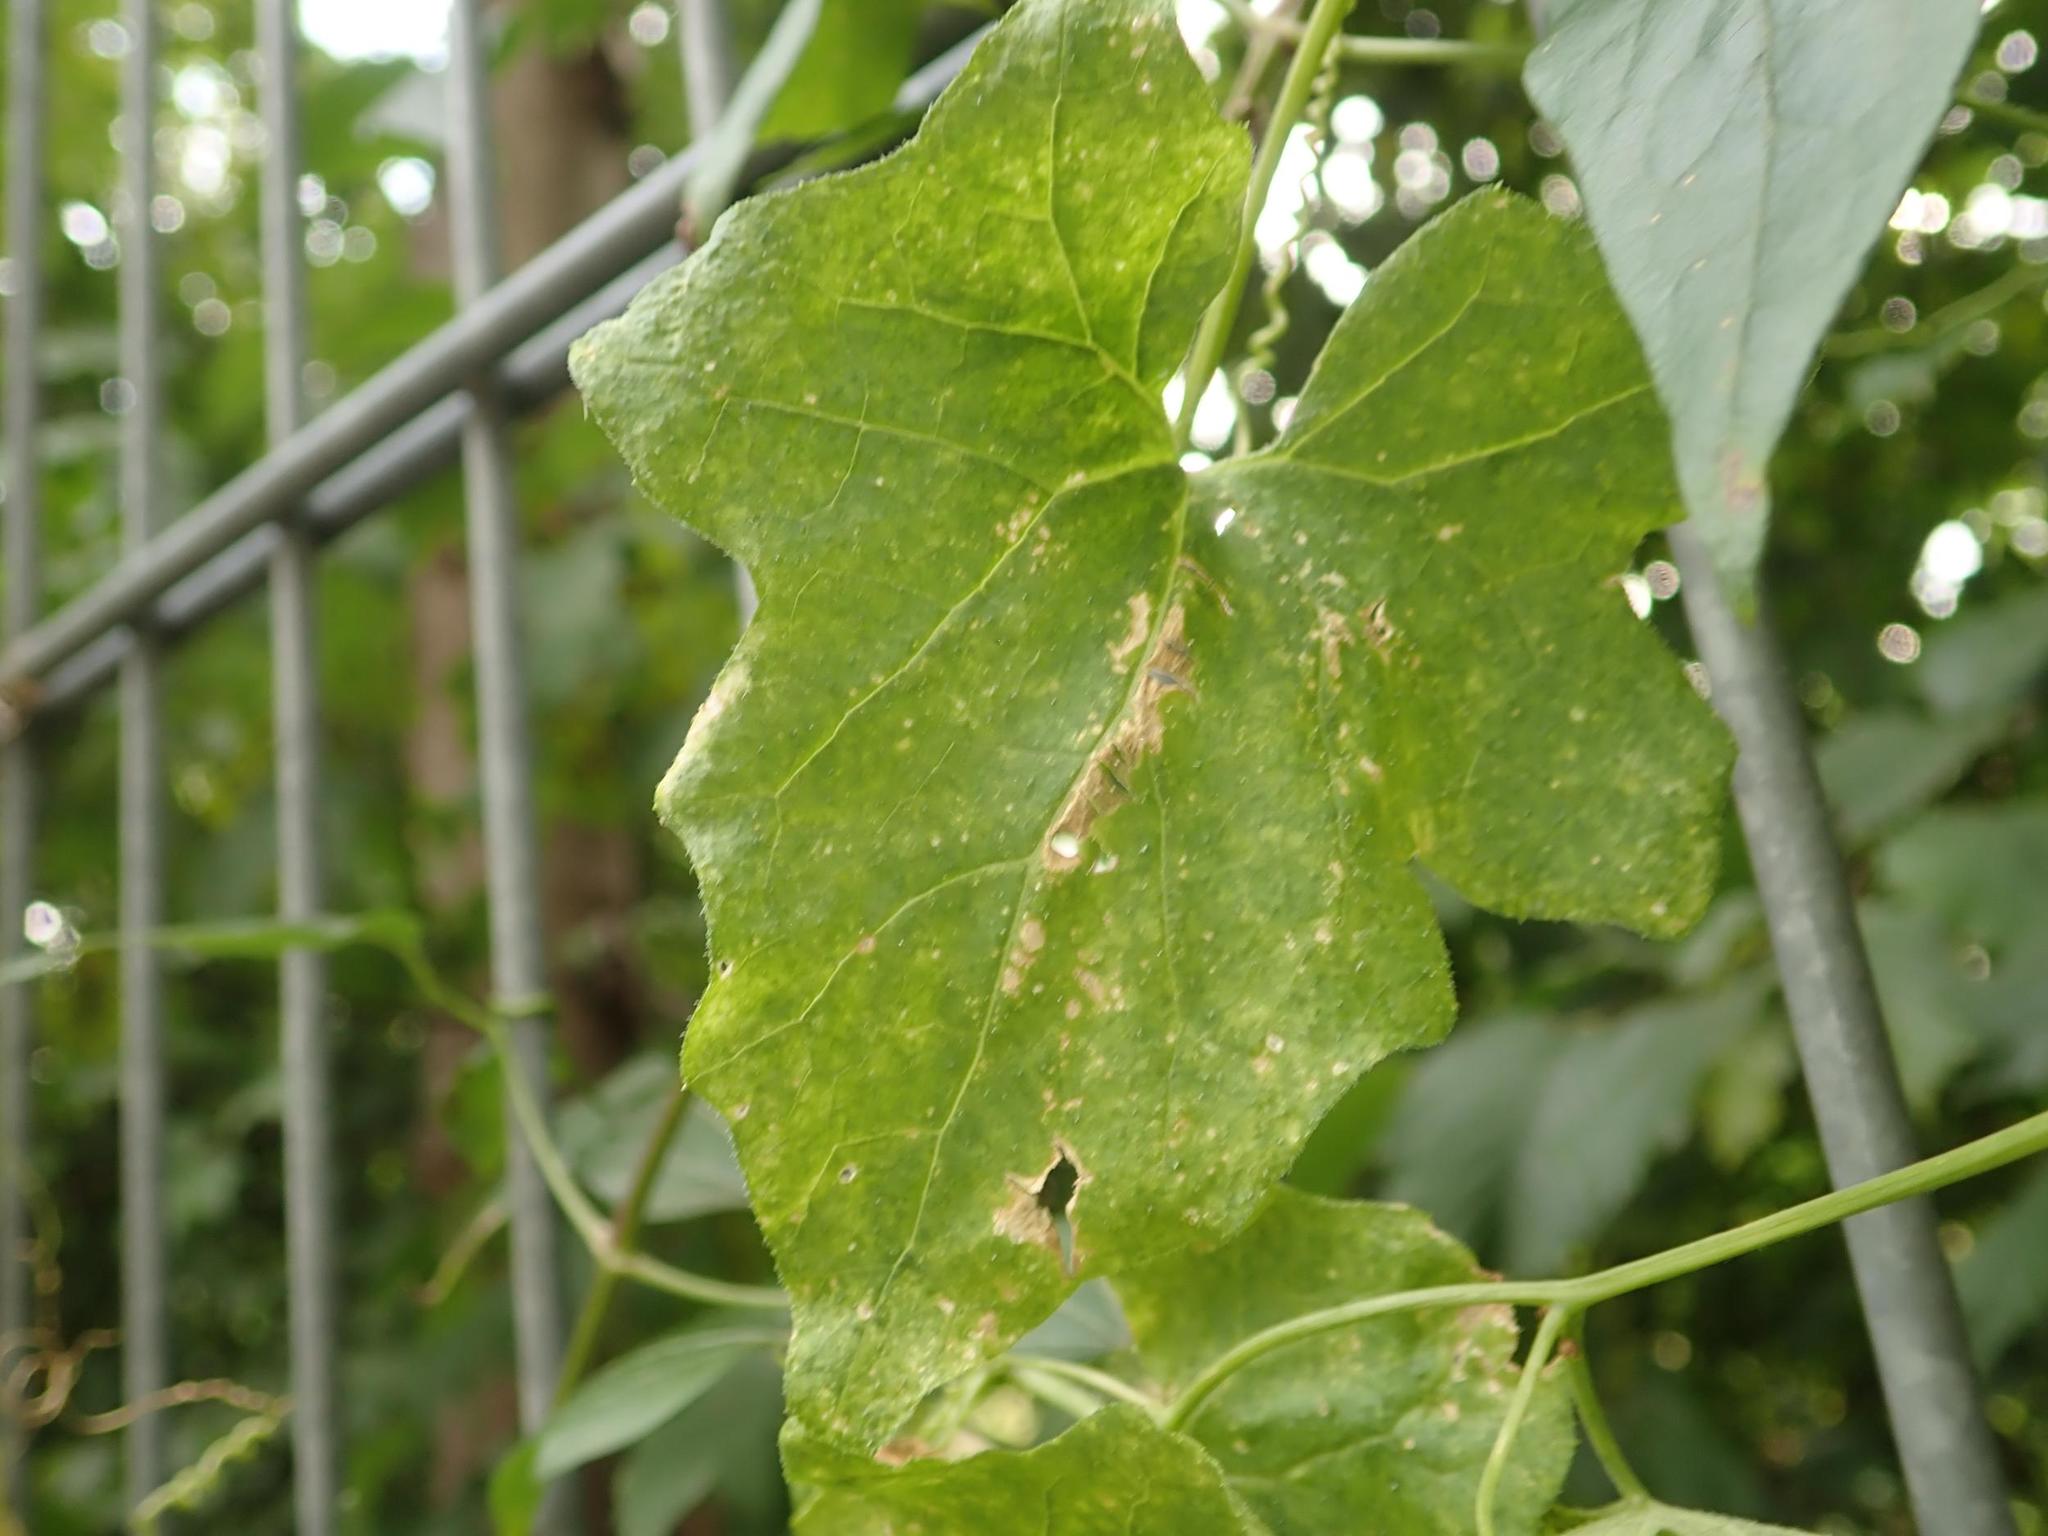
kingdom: Plantae
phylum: Tracheophyta
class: Magnoliopsida
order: Cucurbitales
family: Cucurbitaceae
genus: Bryonia
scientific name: Bryonia cretica
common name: Cretan bryony
